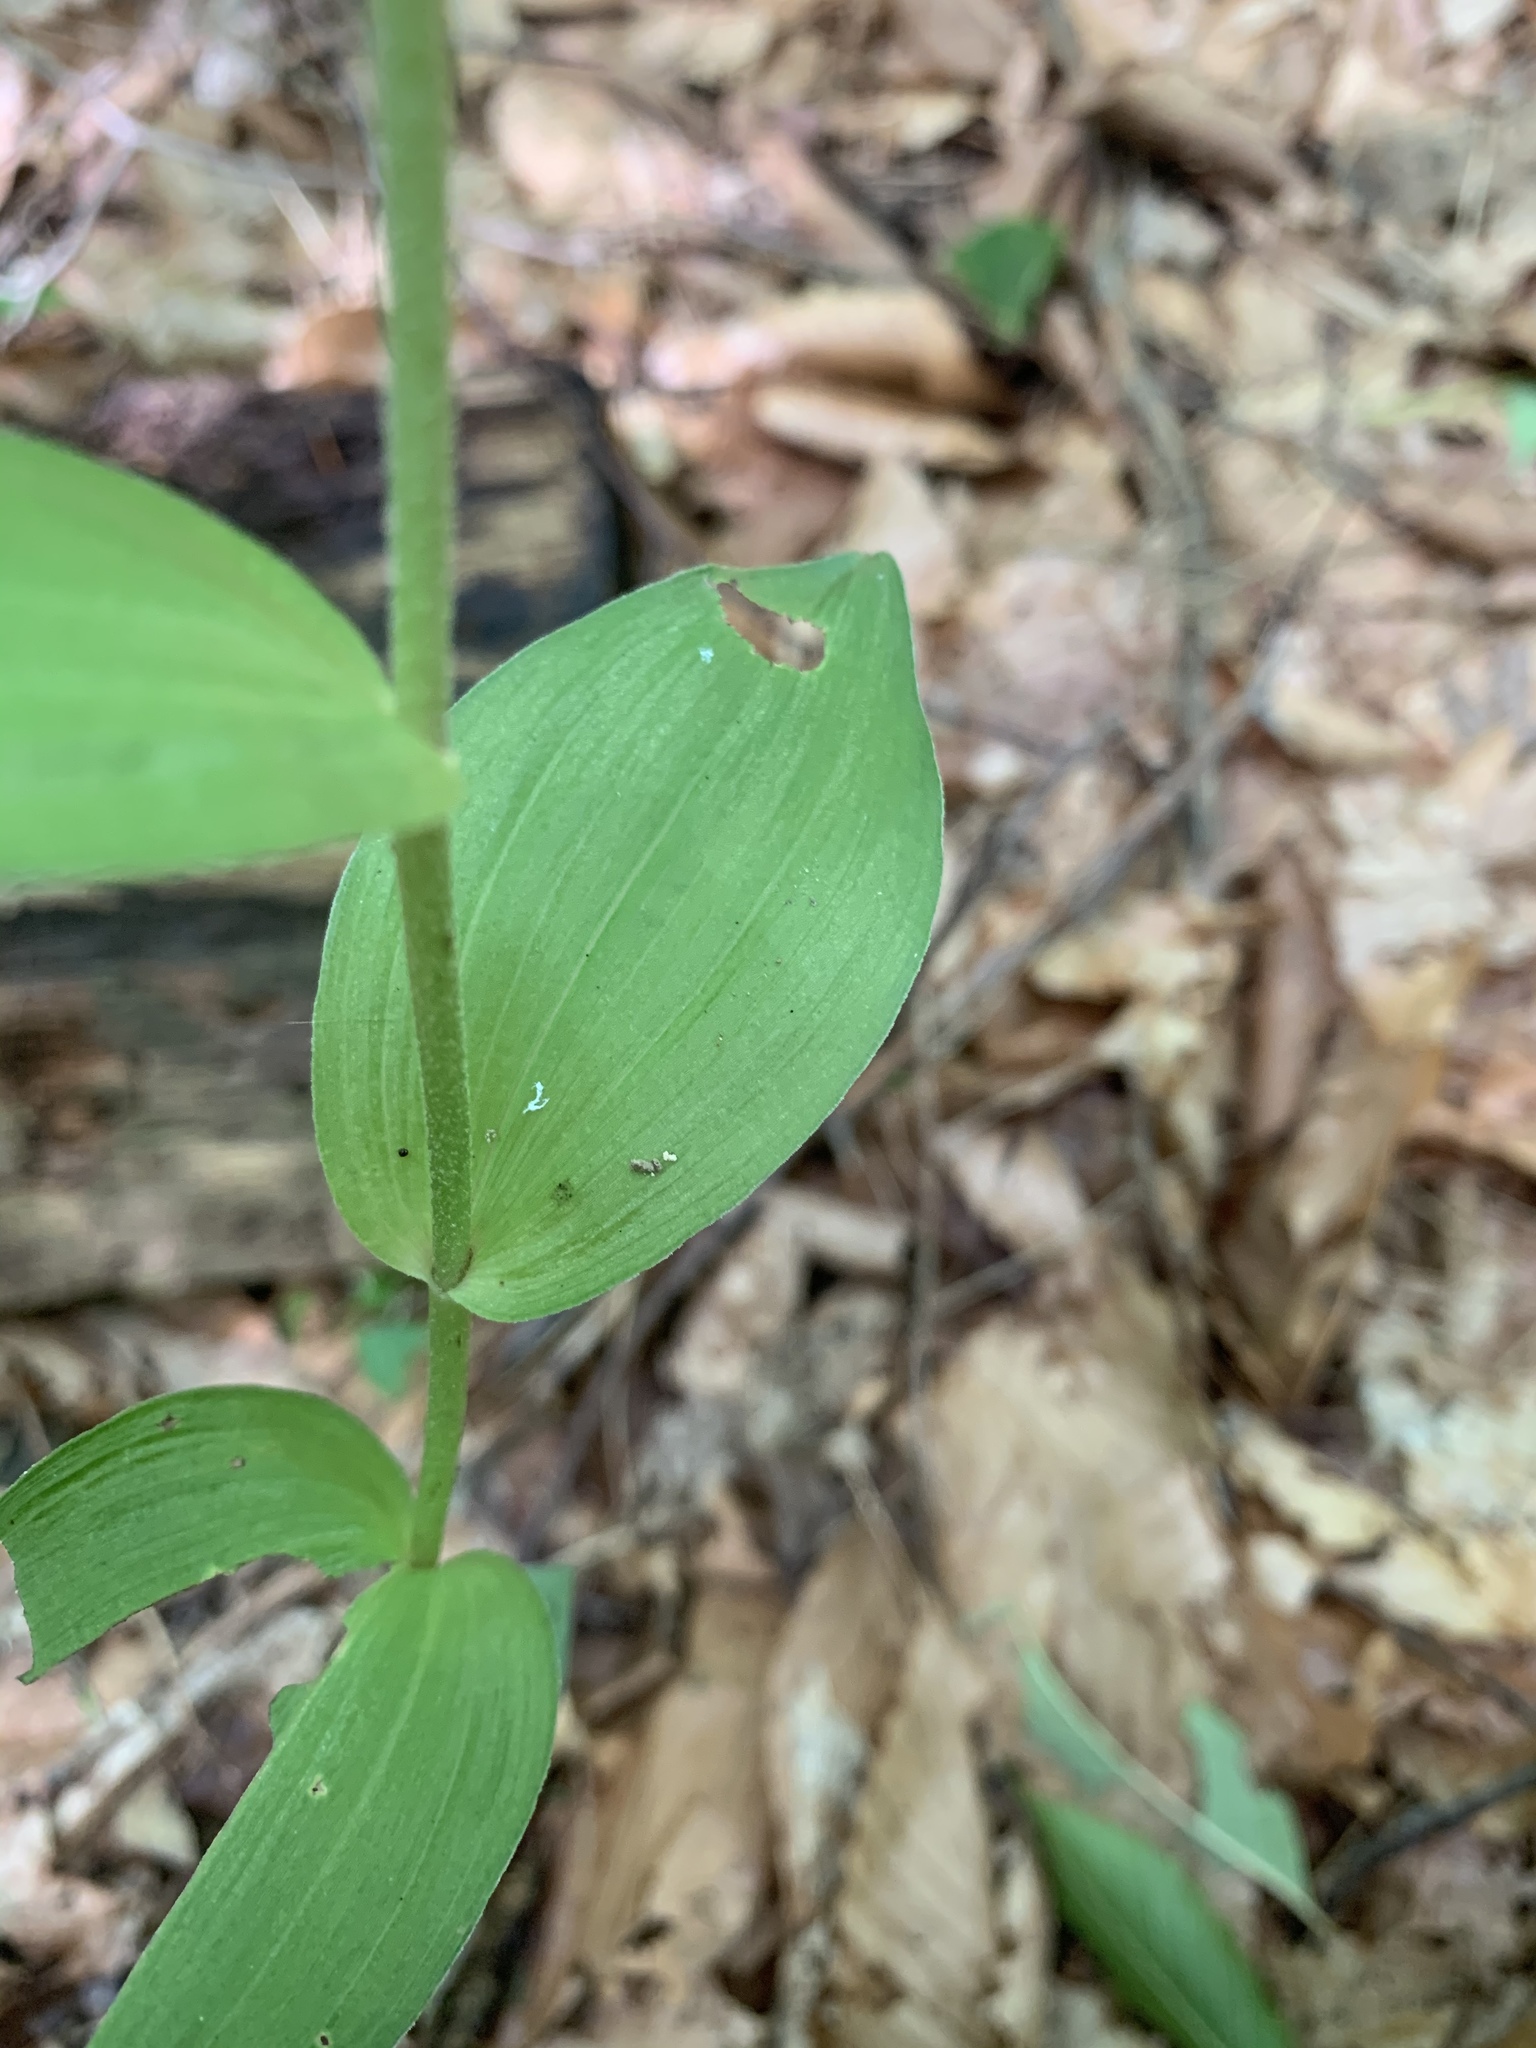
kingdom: Plantae
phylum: Tracheophyta
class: Liliopsida
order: Asparagales
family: Orchidaceae
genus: Epipactis
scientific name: Epipactis helleborine
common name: Broad-leaved helleborine
